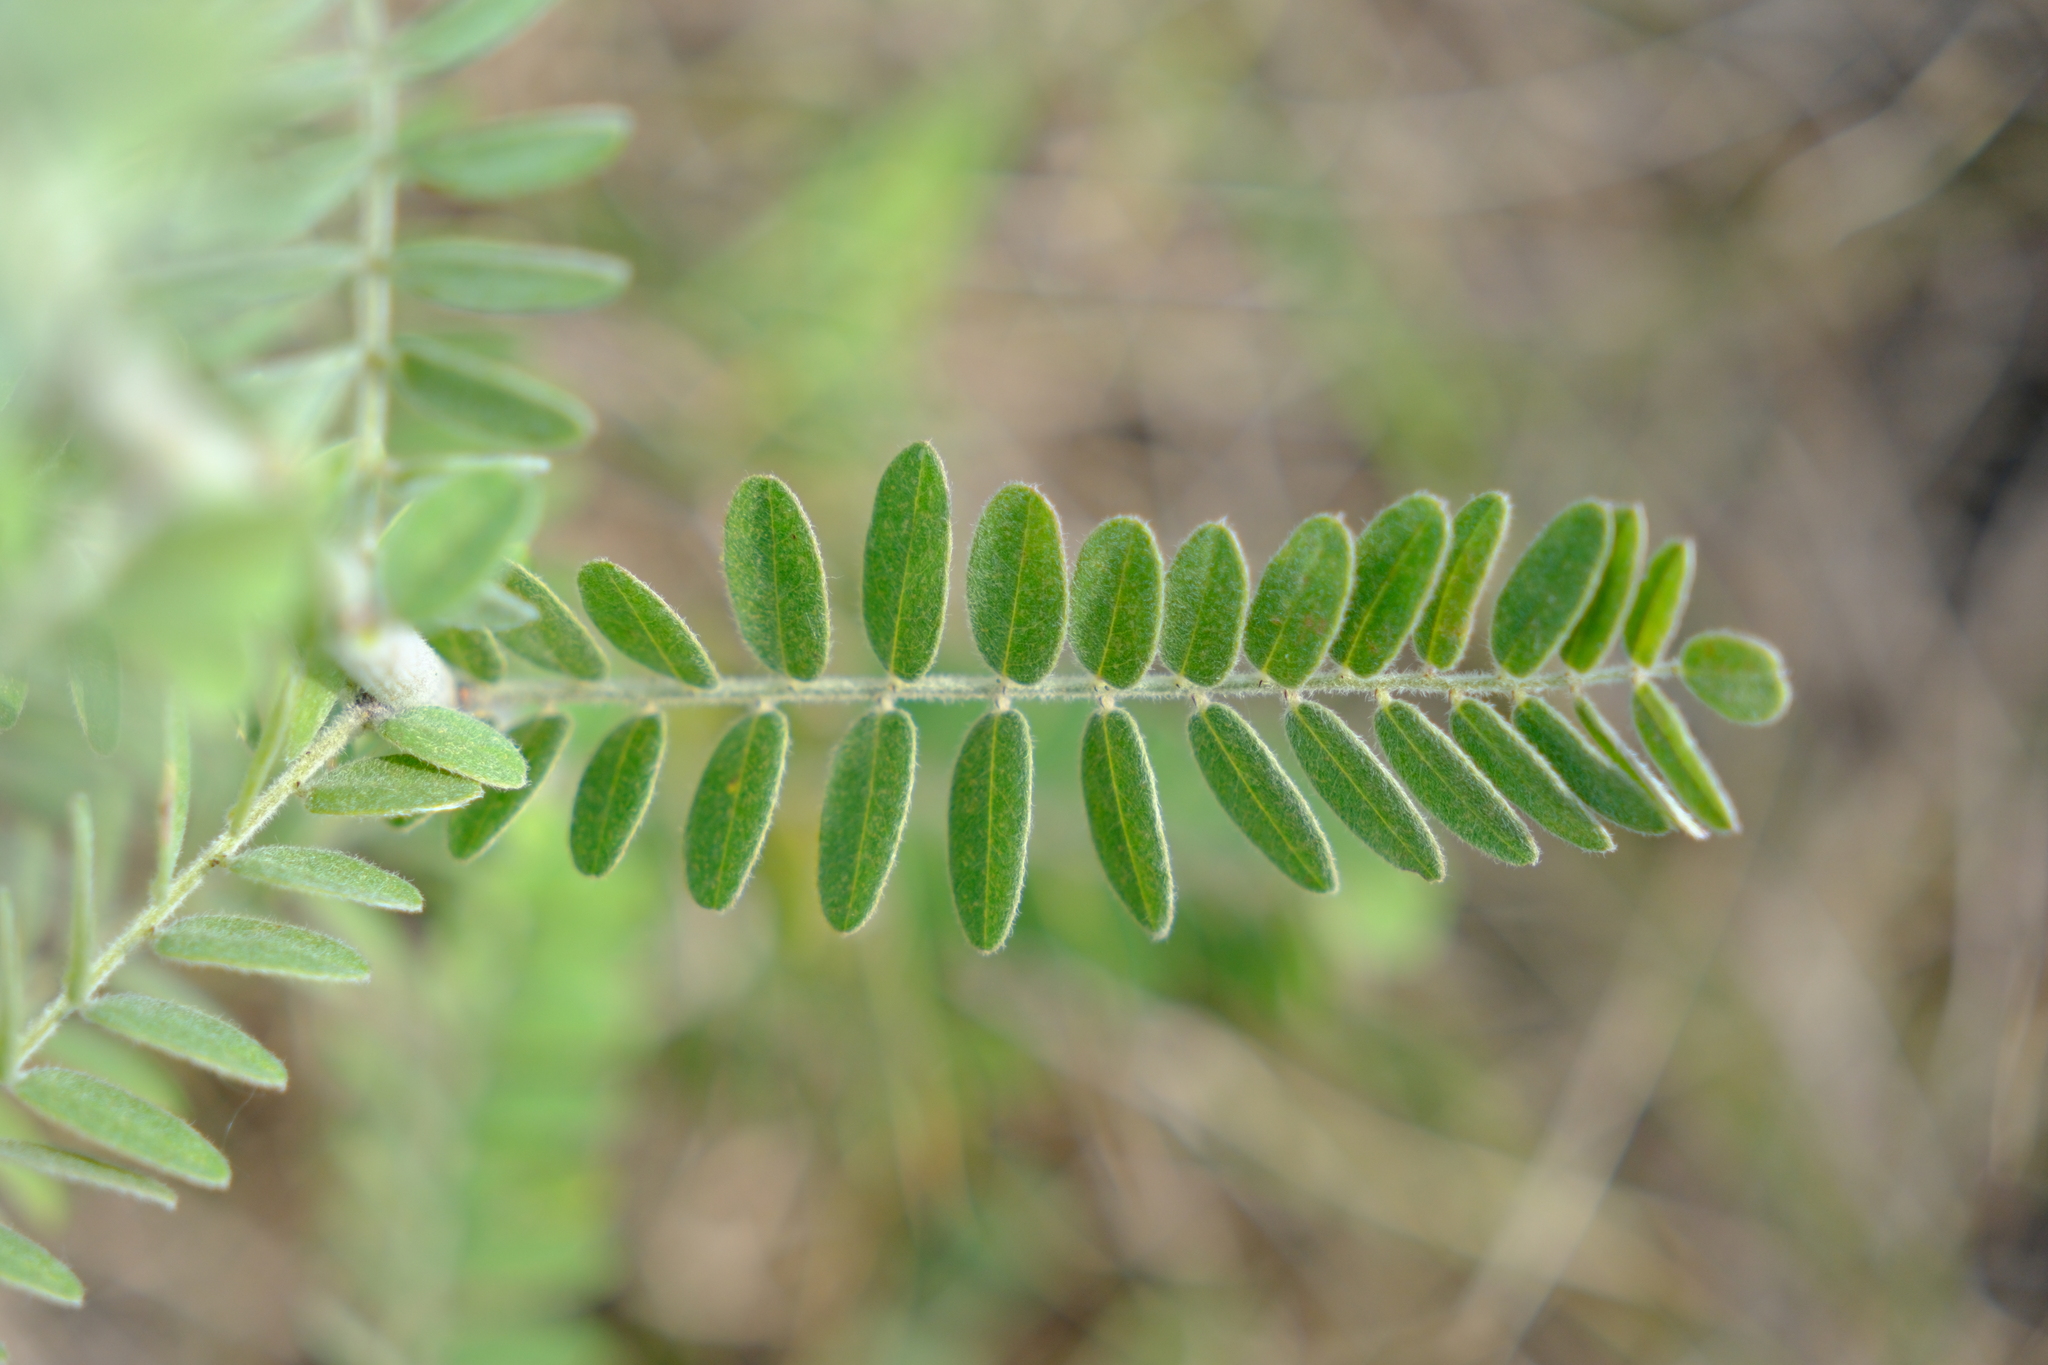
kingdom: Plantae
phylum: Tracheophyta
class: Magnoliopsida
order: Fabales
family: Fabaceae
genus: Amorpha
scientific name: Amorpha canescens
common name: Leadplant
